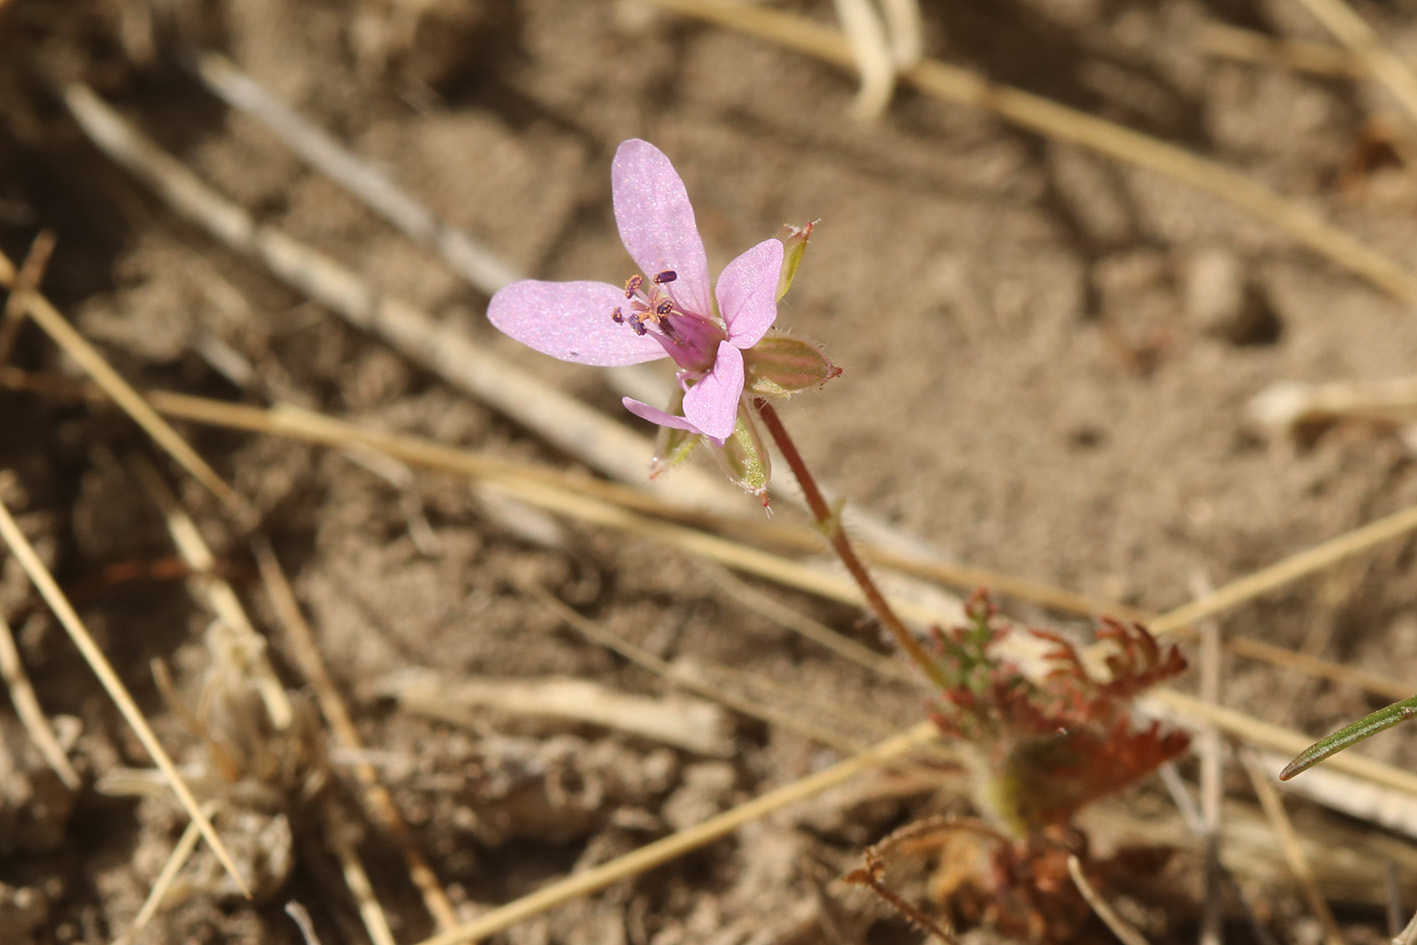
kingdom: Plantae
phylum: Tracheophyta
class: Magnoliopsida
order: Geraniales
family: Geraniaceae
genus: Erodium
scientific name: Erodium cicutarium
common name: Common stork's-bill
